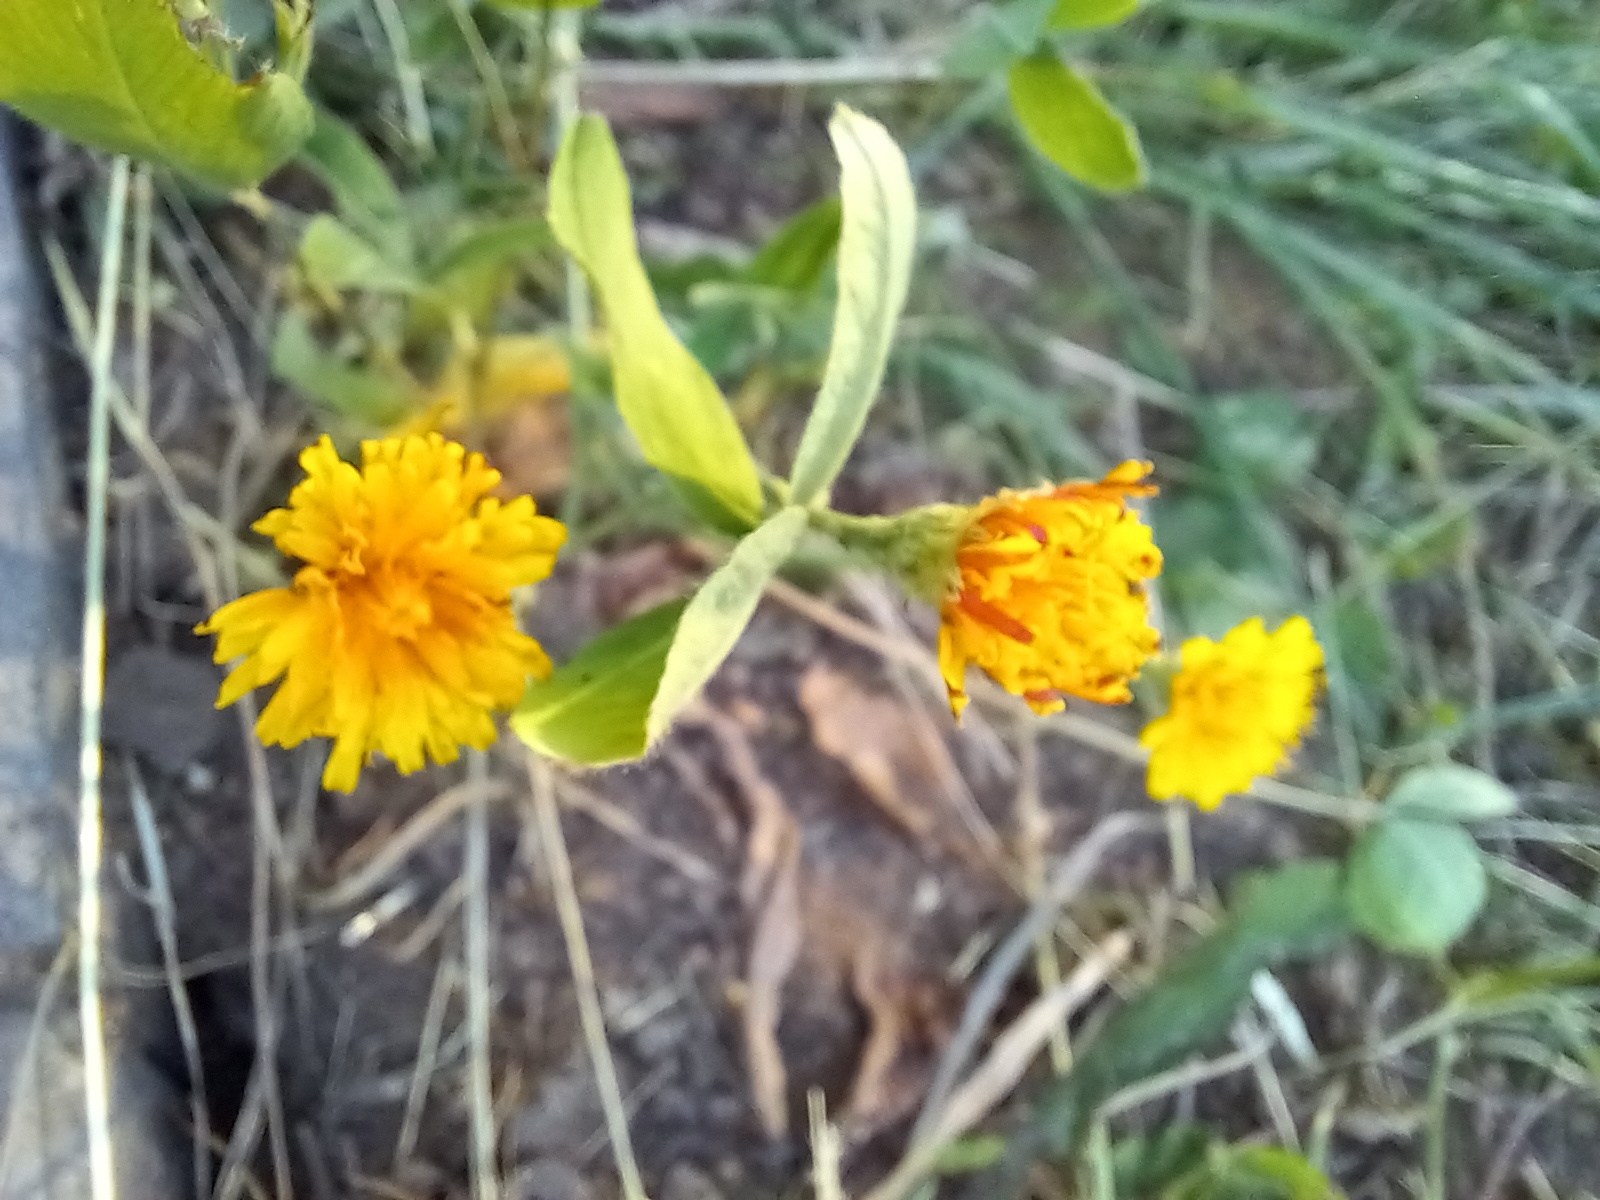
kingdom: Plantae
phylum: Tracheophyta
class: Magnoliopsida
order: Asterales
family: Asteraceae
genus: Scorzoneroides
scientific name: Scorzoneroides autumnalis
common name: Autumn hawkbit
